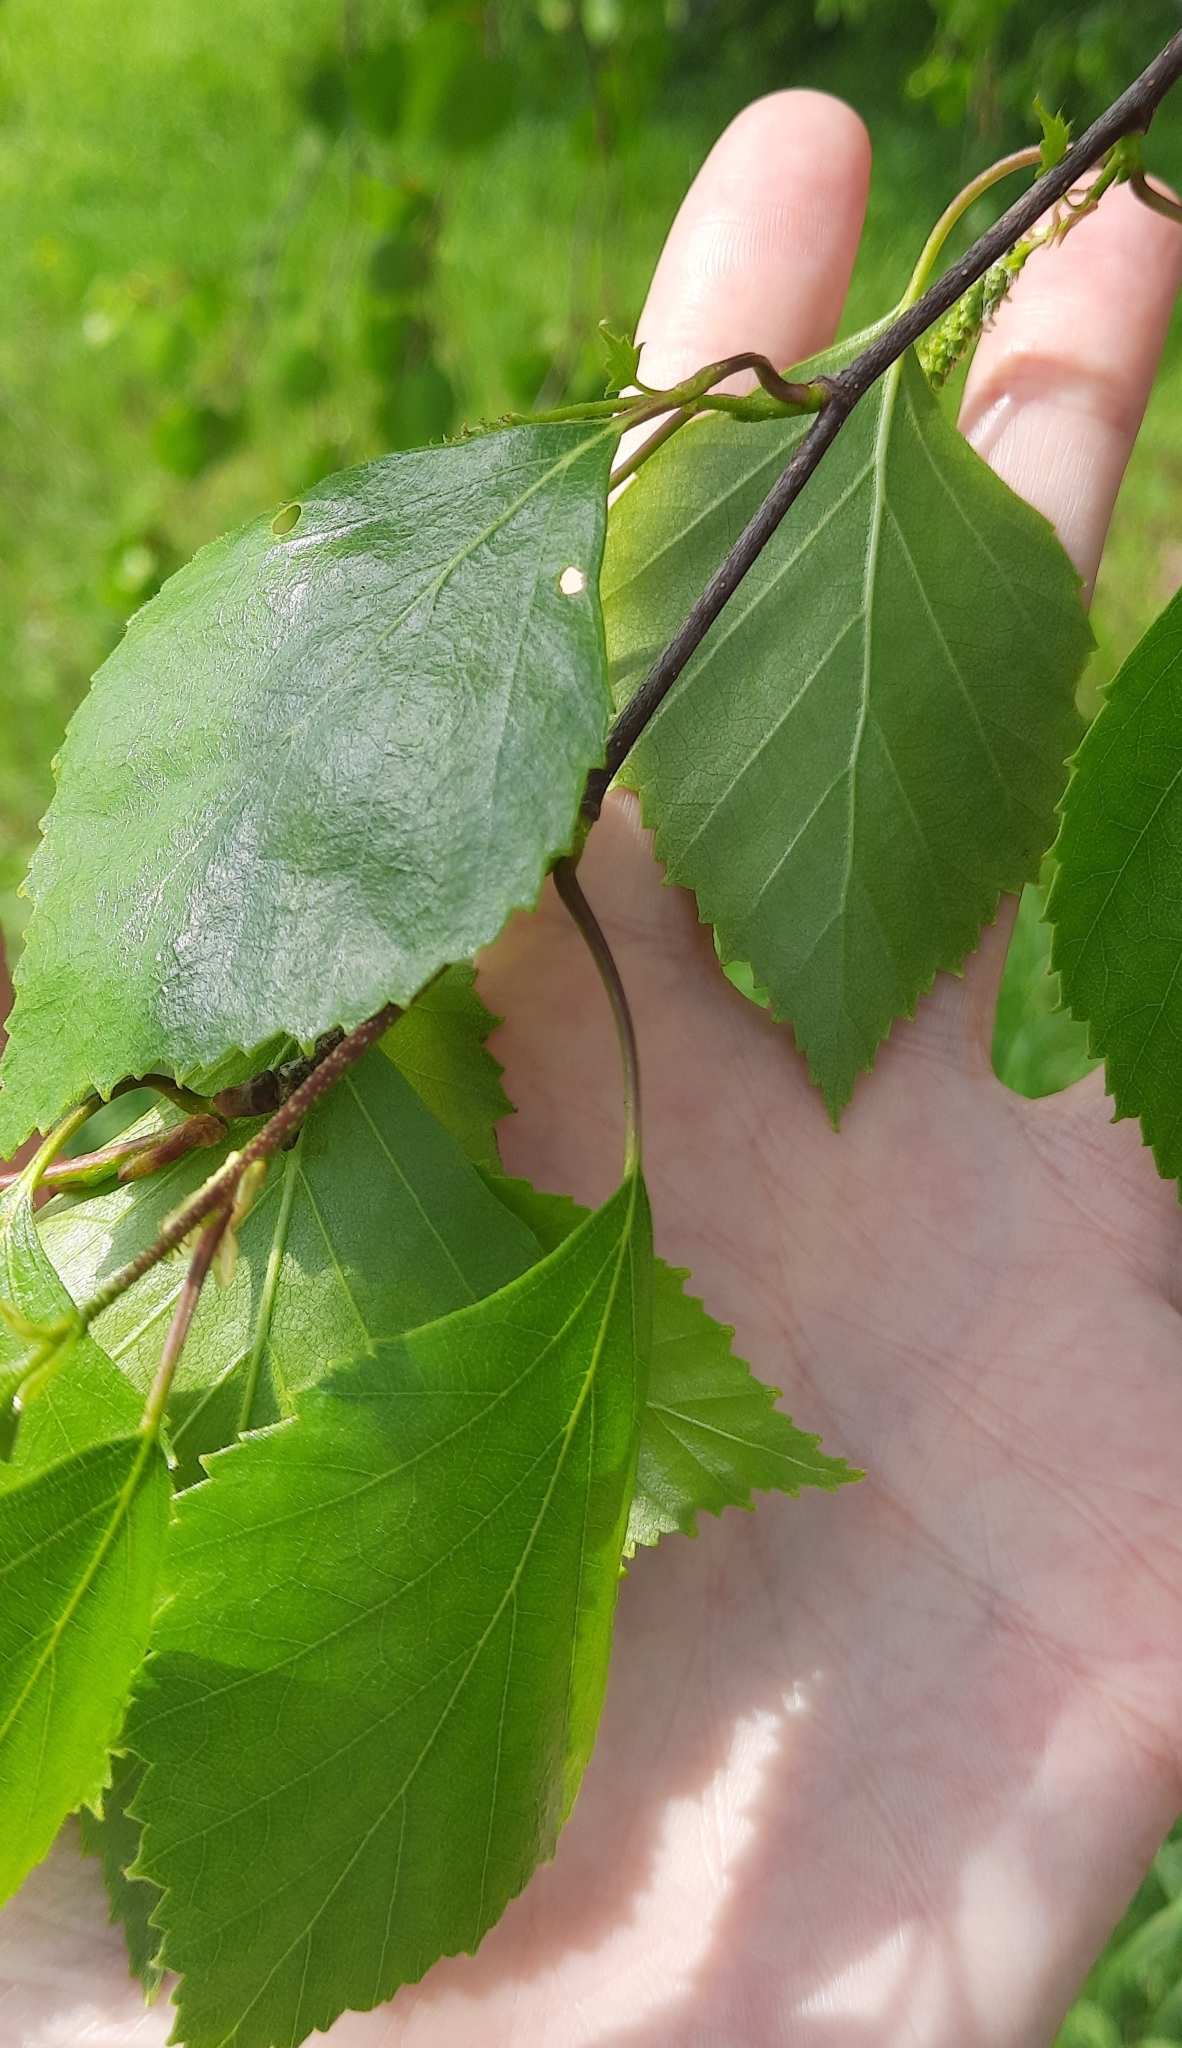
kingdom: Plantae
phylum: Tracheophyta
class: Magnoliopsida
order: Fagales
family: Betulaceae
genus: Betula
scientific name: Betula pubescens
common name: Downy birch
